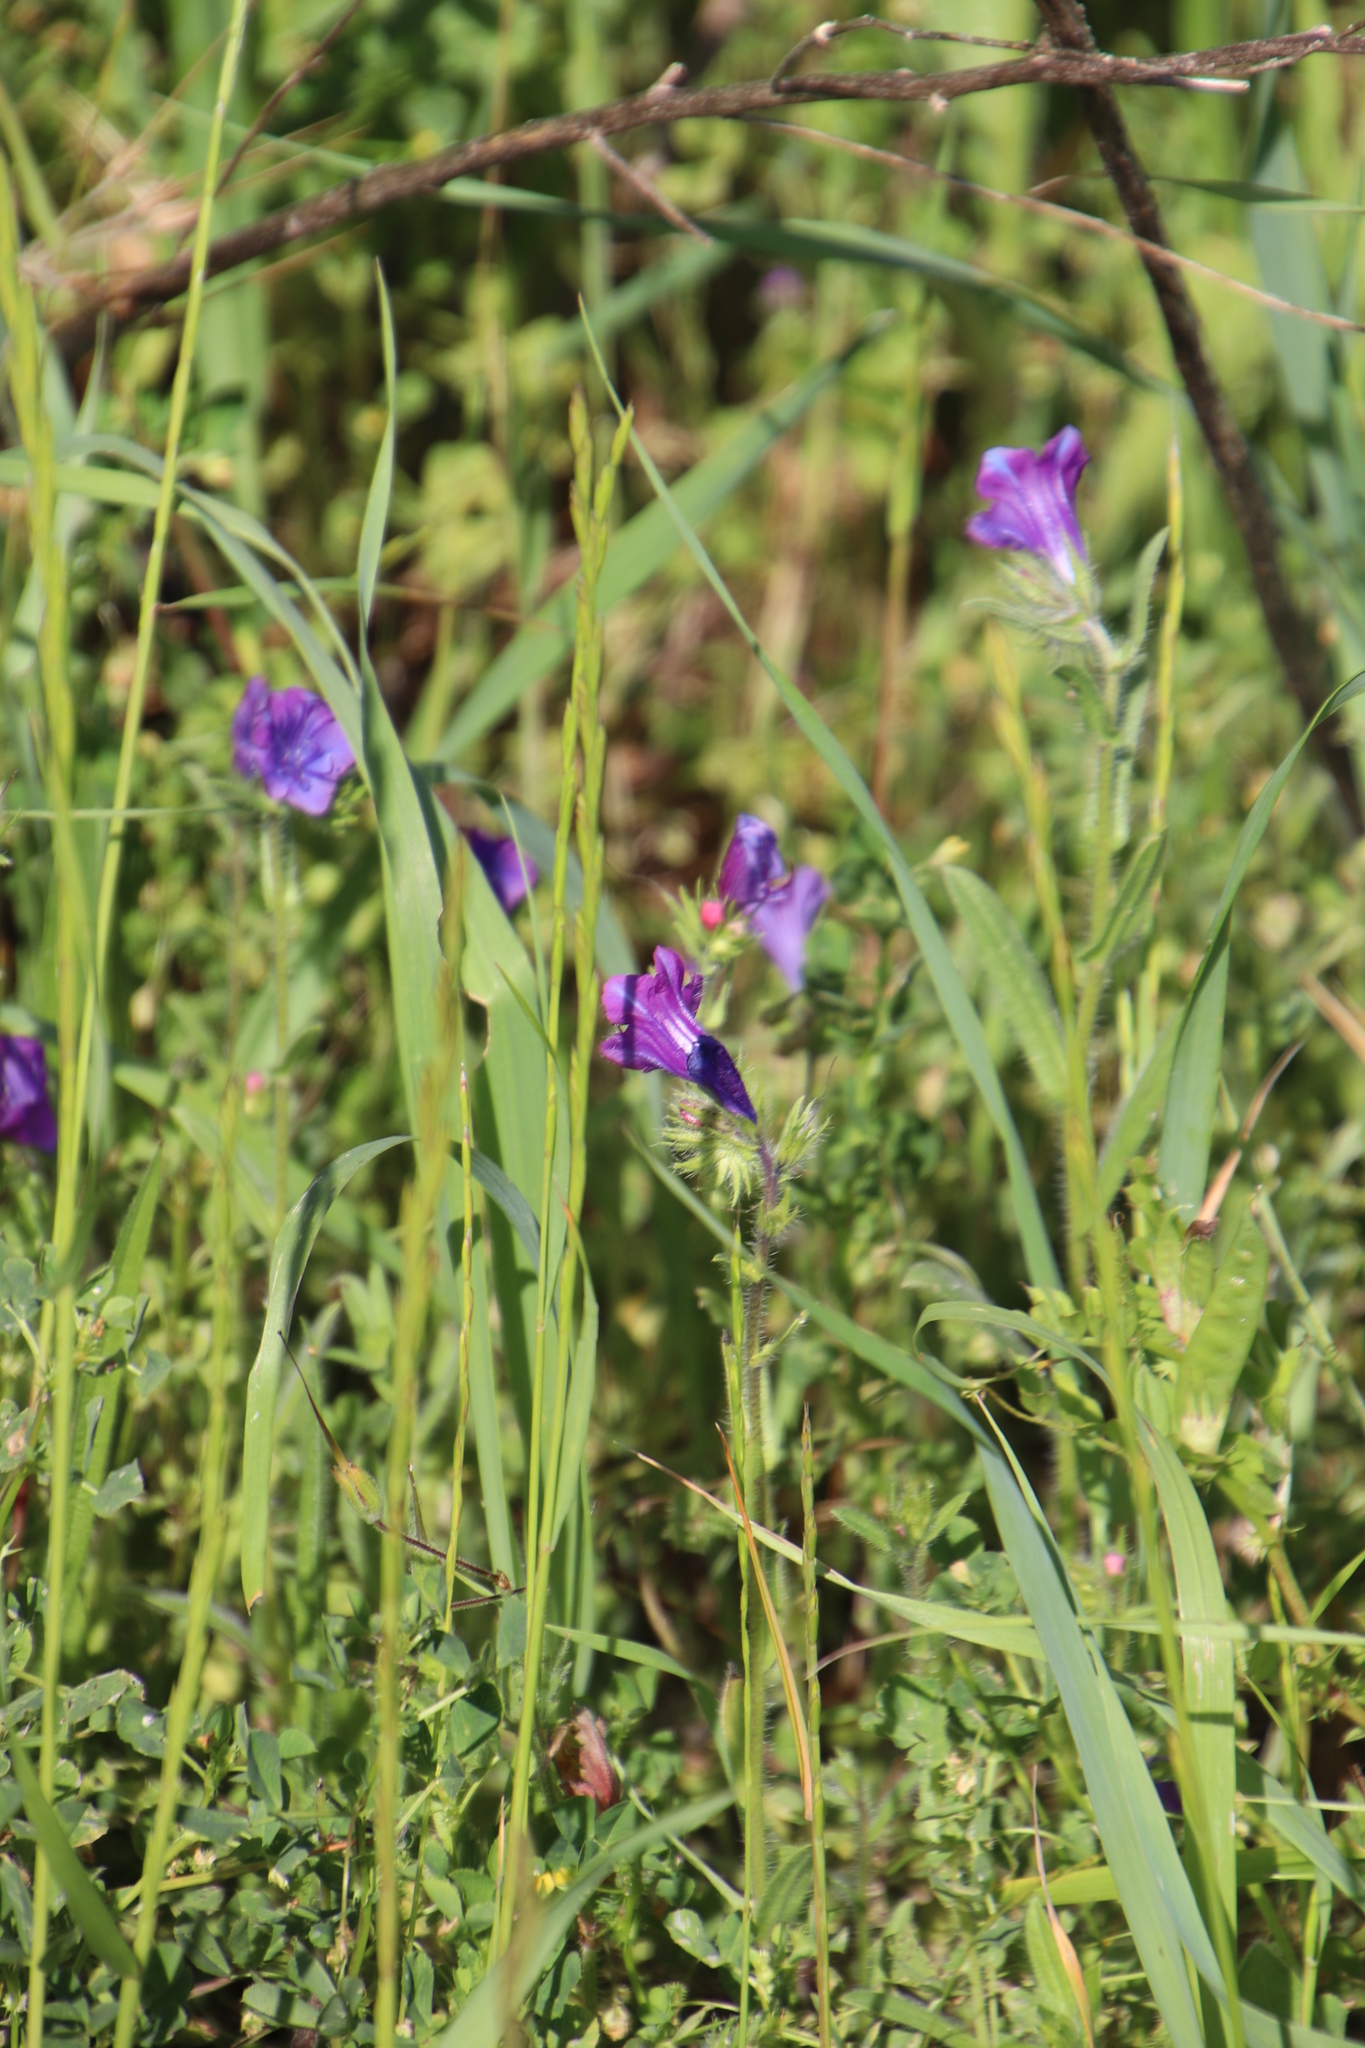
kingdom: Plantae
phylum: Tracheophyta
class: Magnoliopsida
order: Boraginales
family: Boraginaceae
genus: Echium
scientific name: Echium plantagineum
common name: Purple viper's-bugloss
